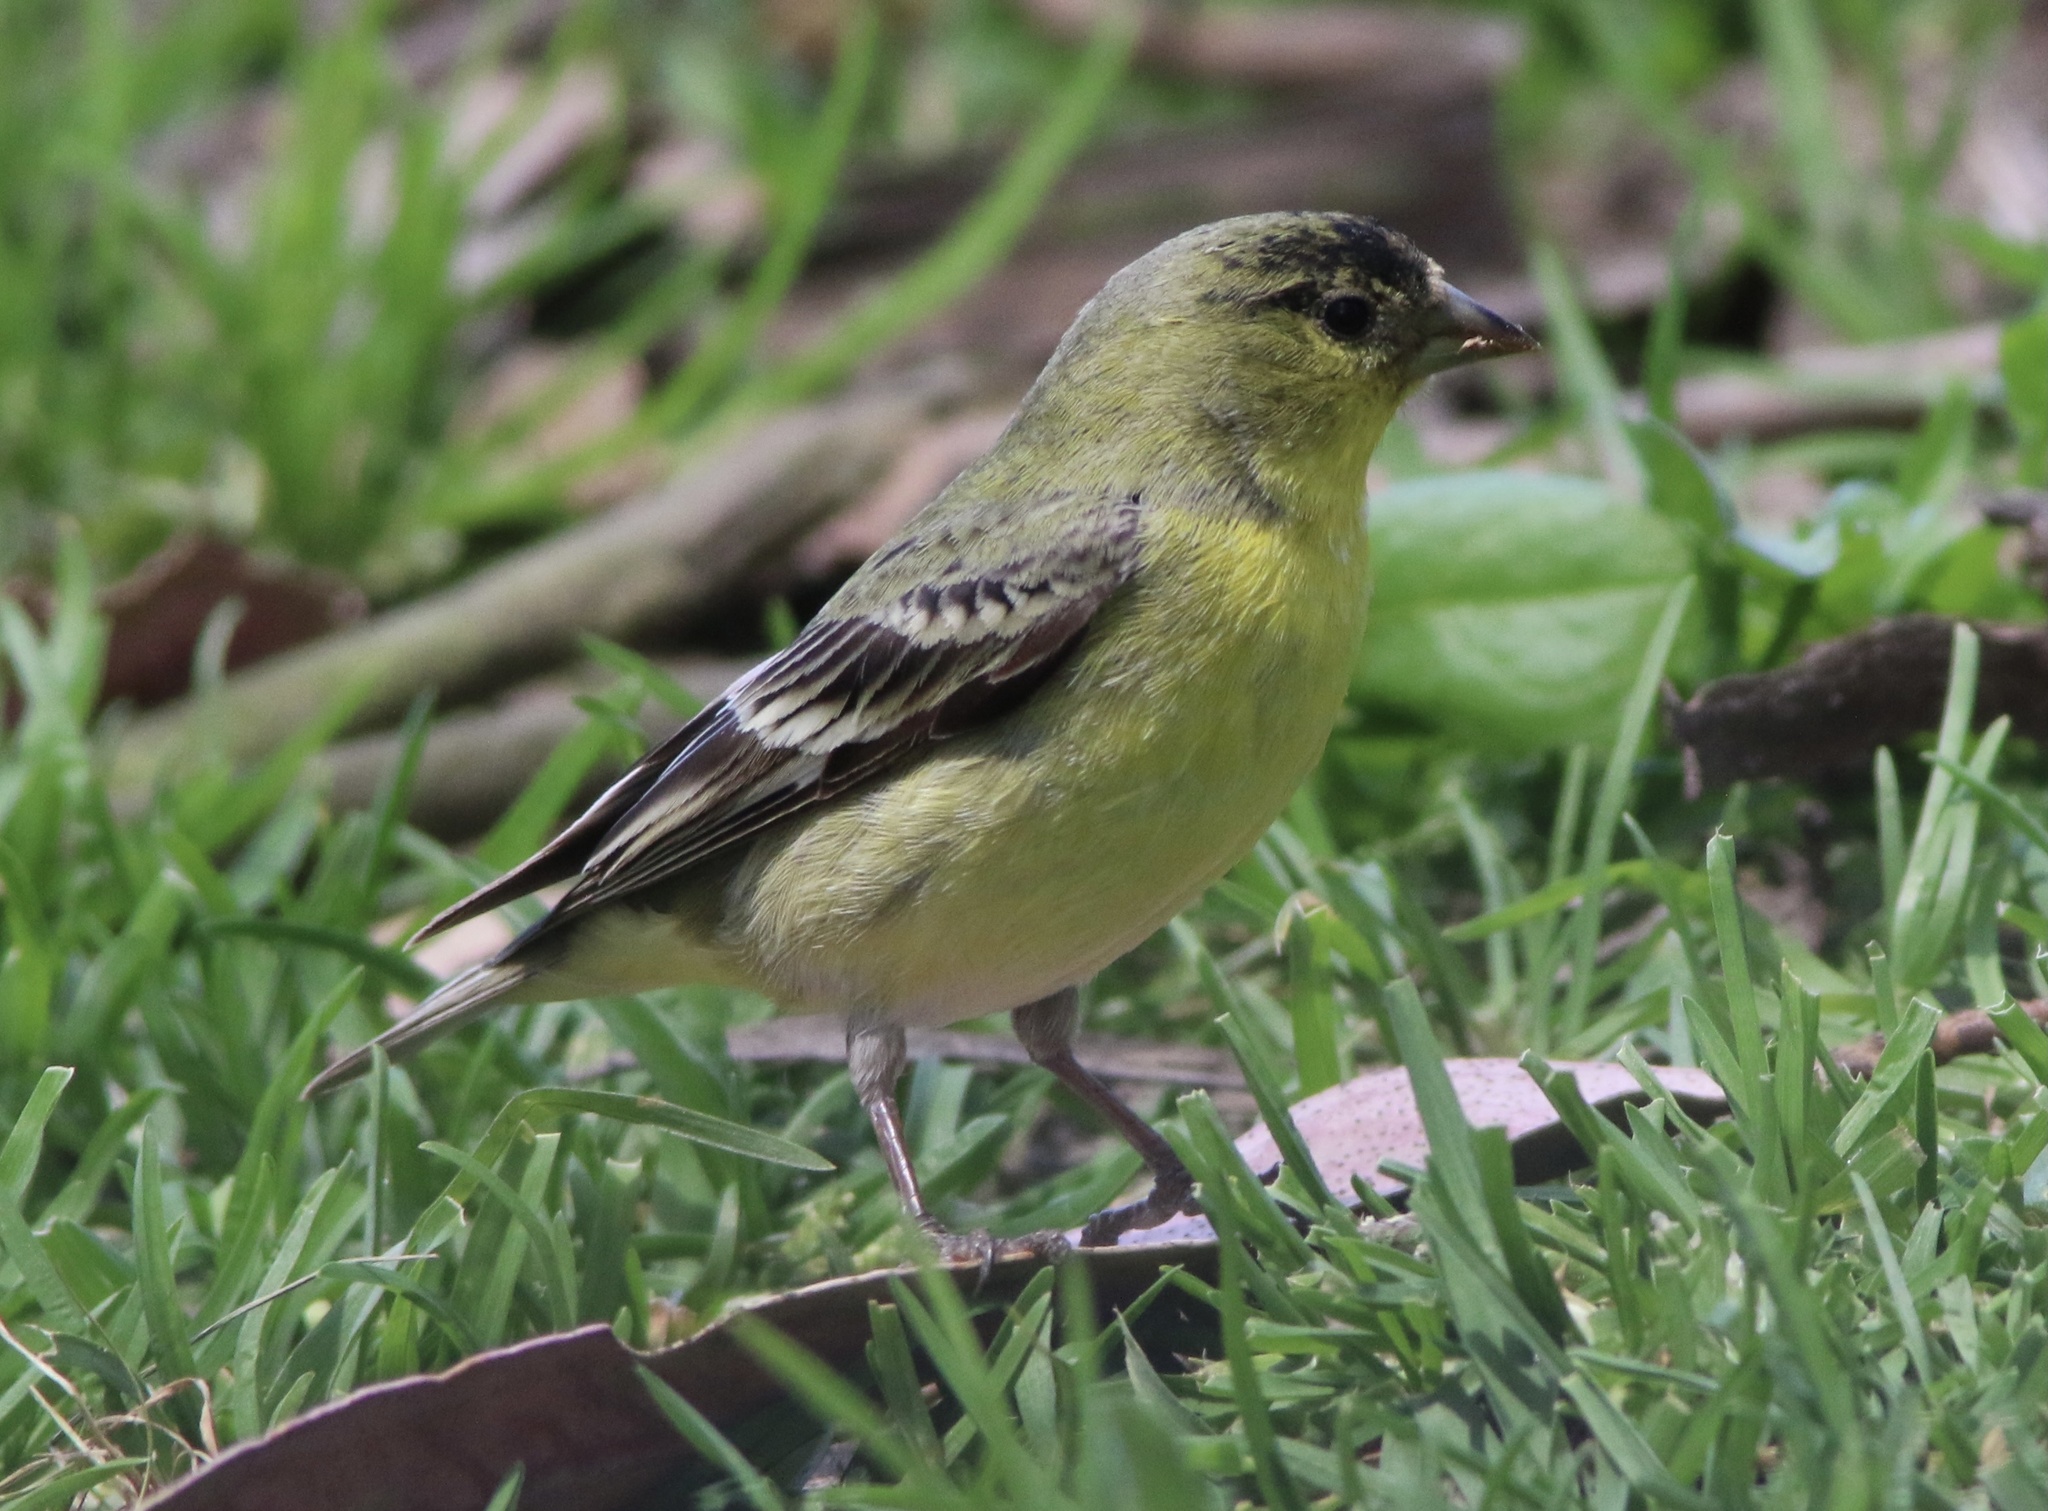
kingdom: Animalia
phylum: Chordata
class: Aves
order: Passeriformes
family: Fringillidae
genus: Spinus
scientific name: Spinus psaltria
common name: Lesser goldfinch
